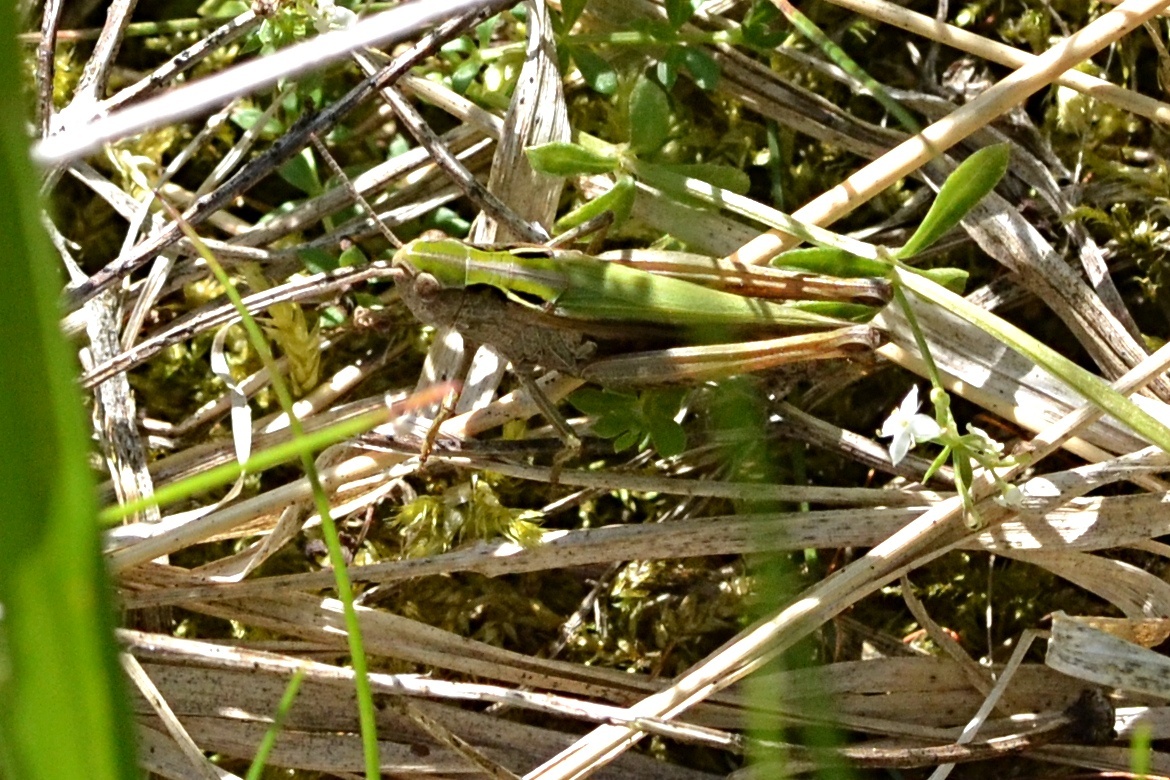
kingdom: Animalia
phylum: Arthropoda
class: Insecta
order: Orthoptera
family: Acrididae
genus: Omocestus
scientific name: Omocestus viridulus
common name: Common green grasshopper
